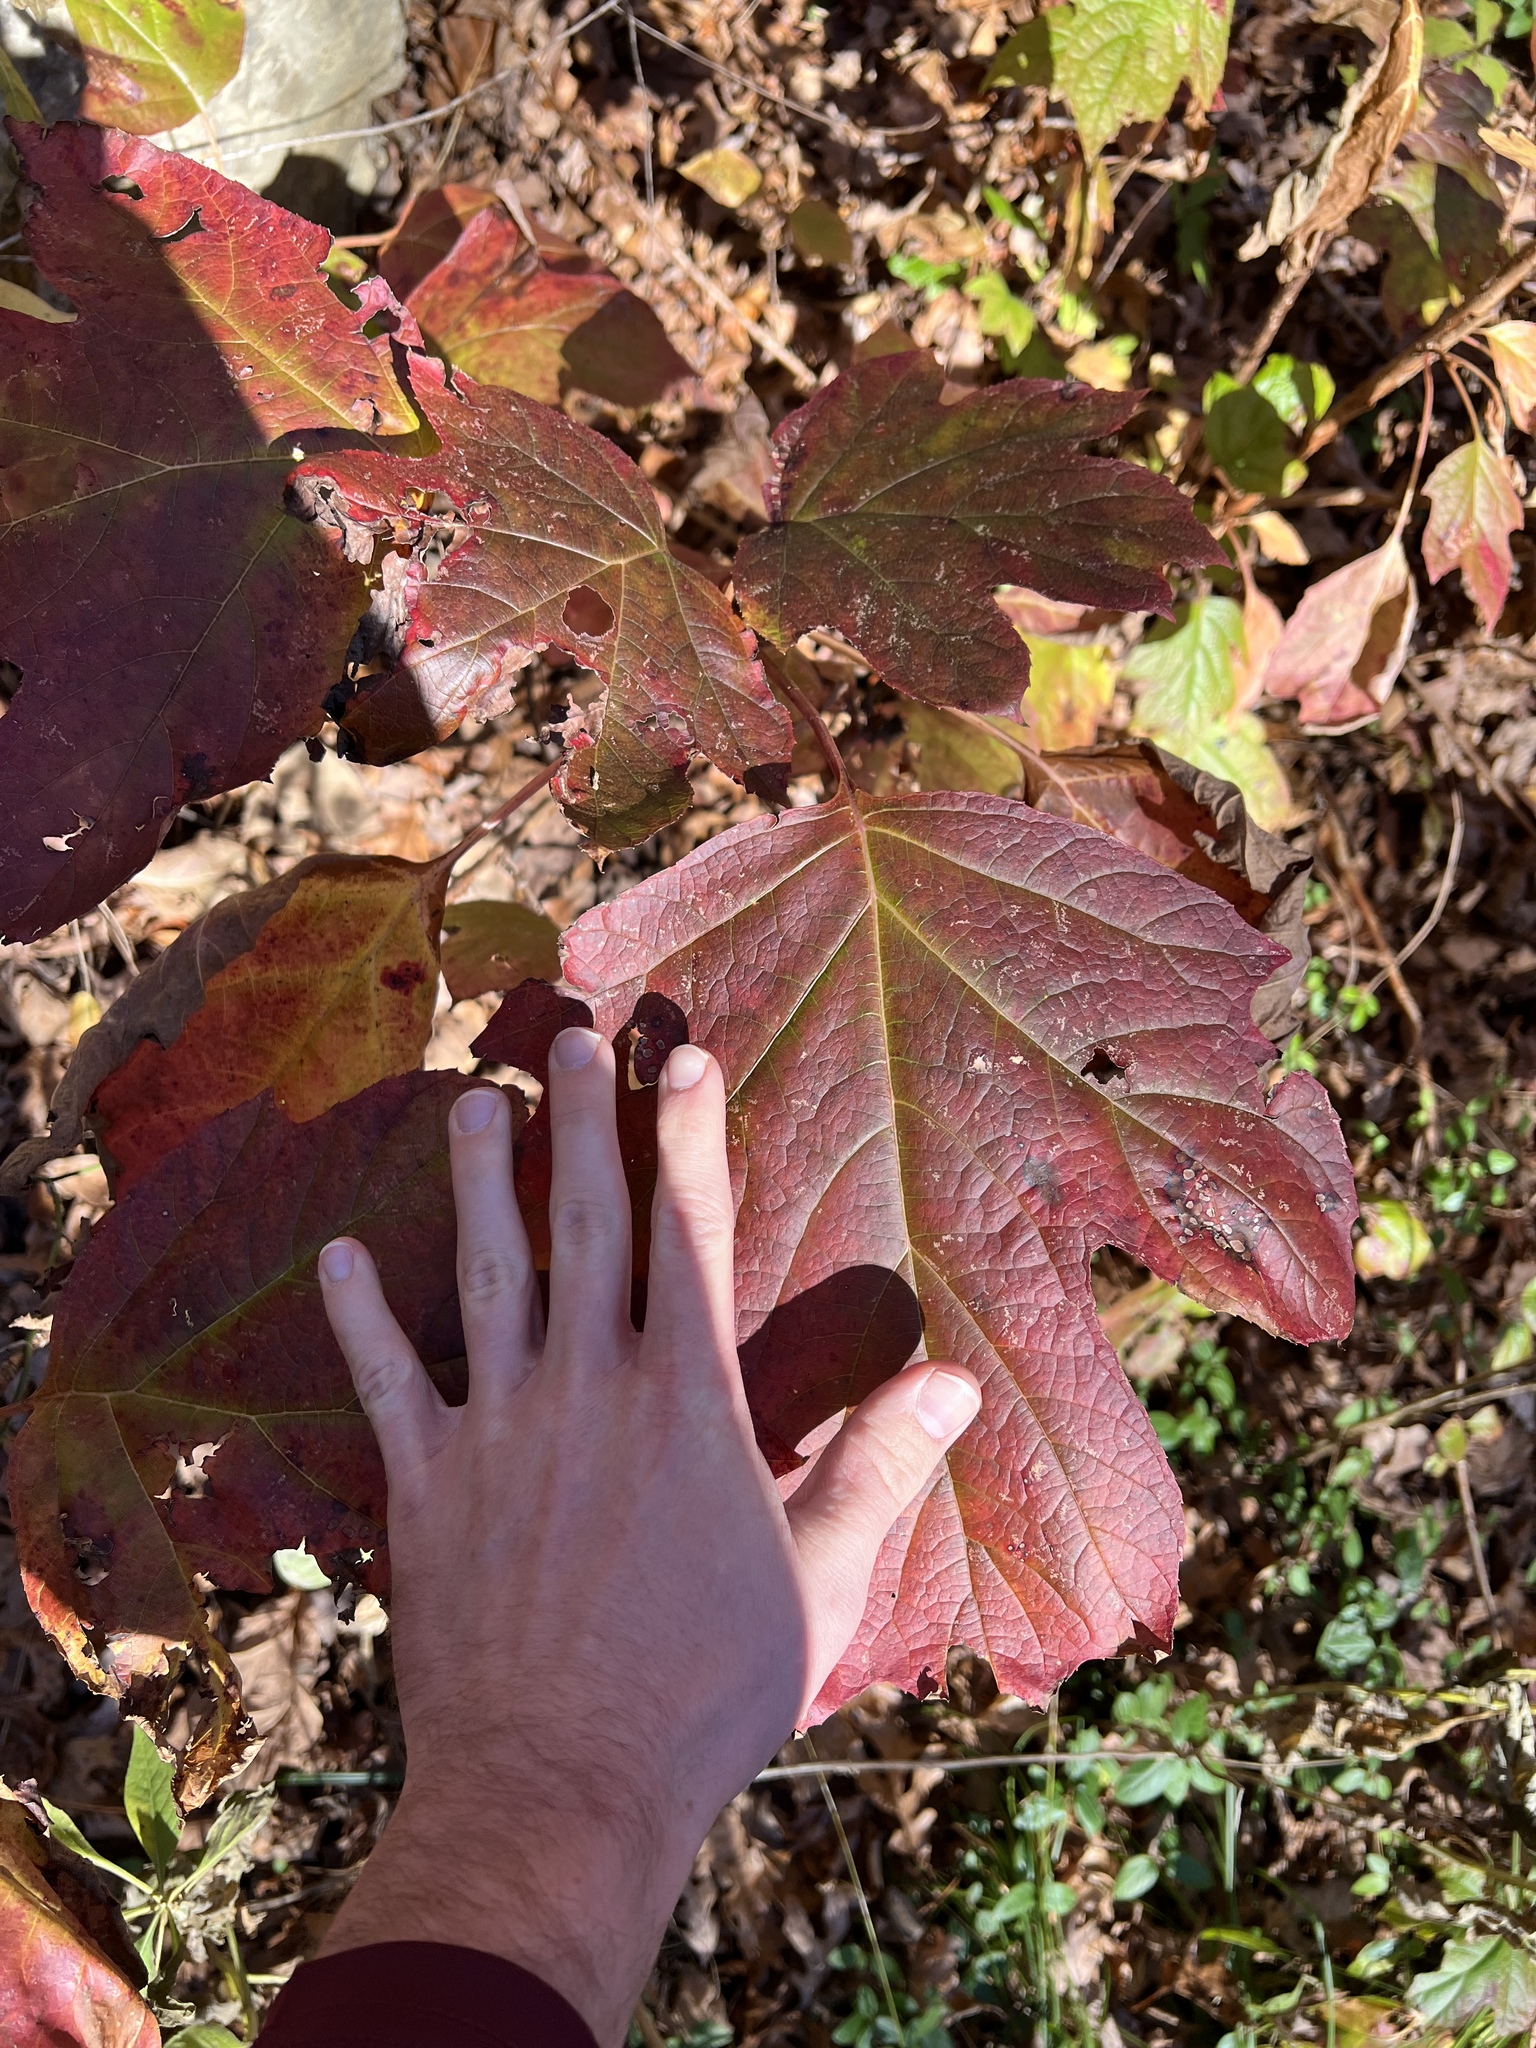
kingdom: Plantae
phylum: Tracheophyta
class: Magnoliopsida
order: Cornales
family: Hydrangeaceae
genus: Hydrangea
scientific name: Hydrangea quercifolia
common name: Oak-leaf hydrangea
